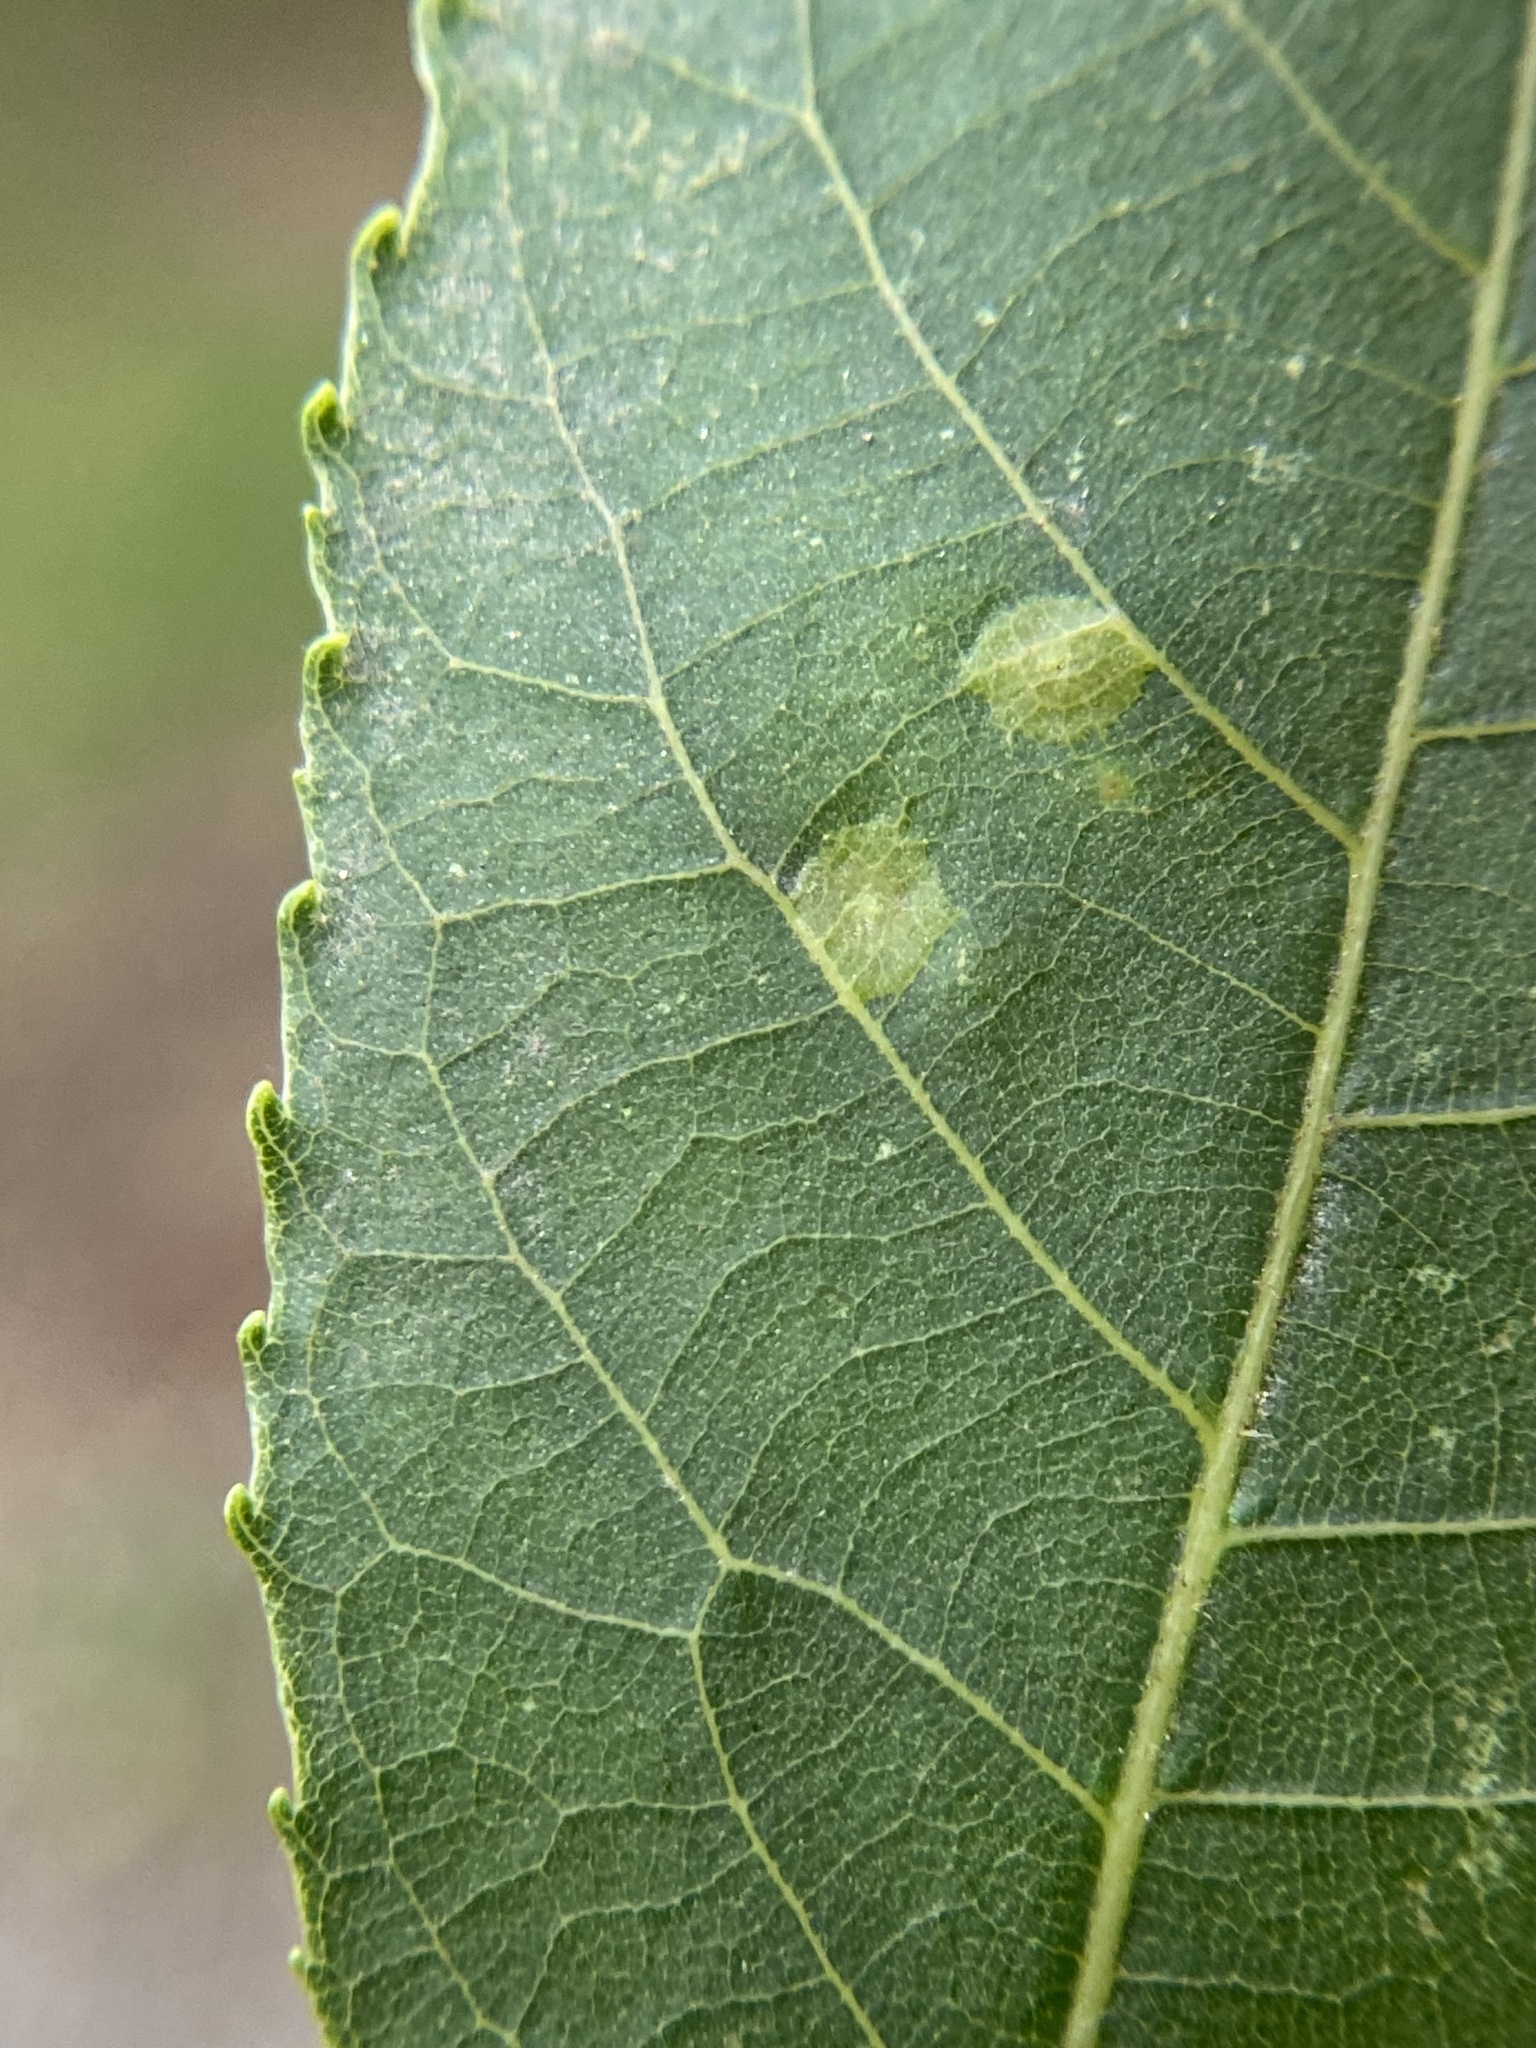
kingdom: Animalia
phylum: Arthropoda
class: Insecta
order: Diptera
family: Cecidomyiidae
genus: Caryomyia
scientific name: Caryomyia tubicola
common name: Hickory bullet gall midge
